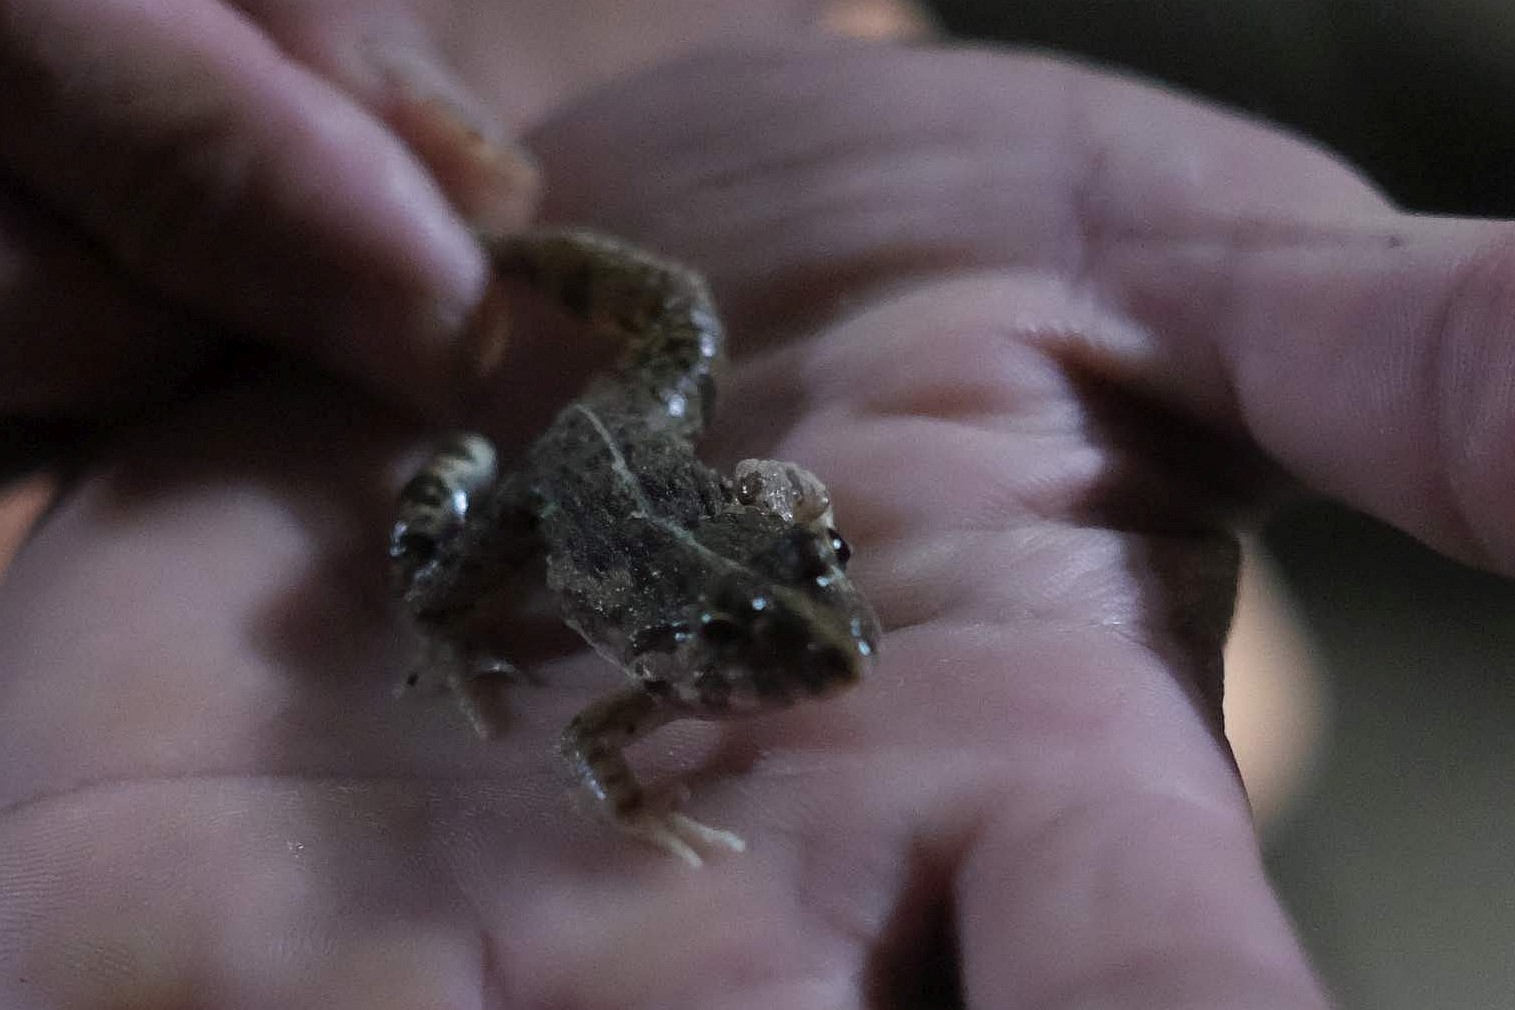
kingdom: Animalia
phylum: Chordata
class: Amphibia
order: Anura
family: Dicroglossidae
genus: Fejervarya
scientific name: Fejervarya limnocharis
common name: Asian grass frog/common pond frog/field frog/grass frog/indian rice frog
